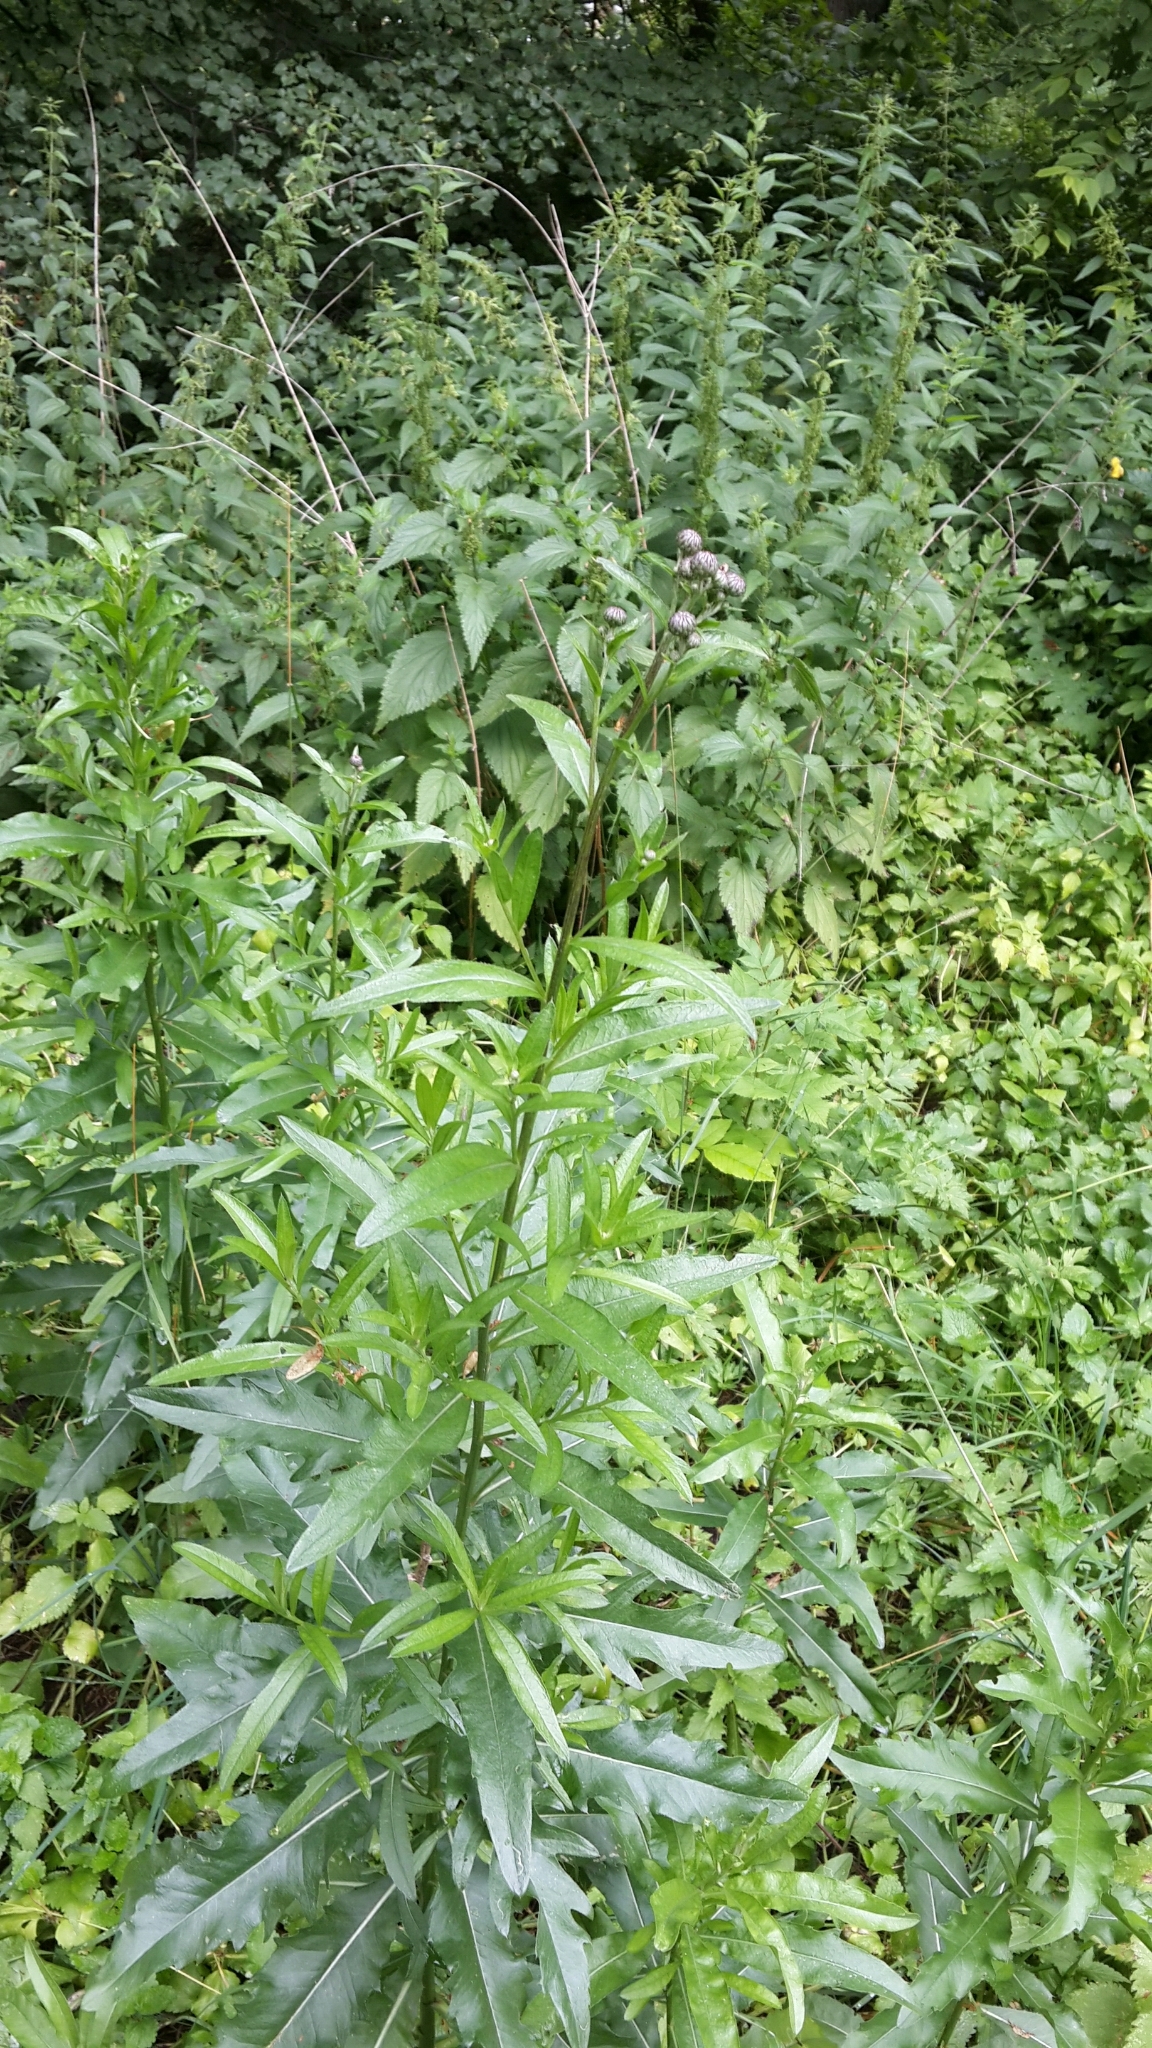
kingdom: Plantae
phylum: Tracheophyta
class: Magnoliopsida
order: Asterales
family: Asteraceae
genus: Cirsium
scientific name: Cirsium arvense
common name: Creeping thistle
